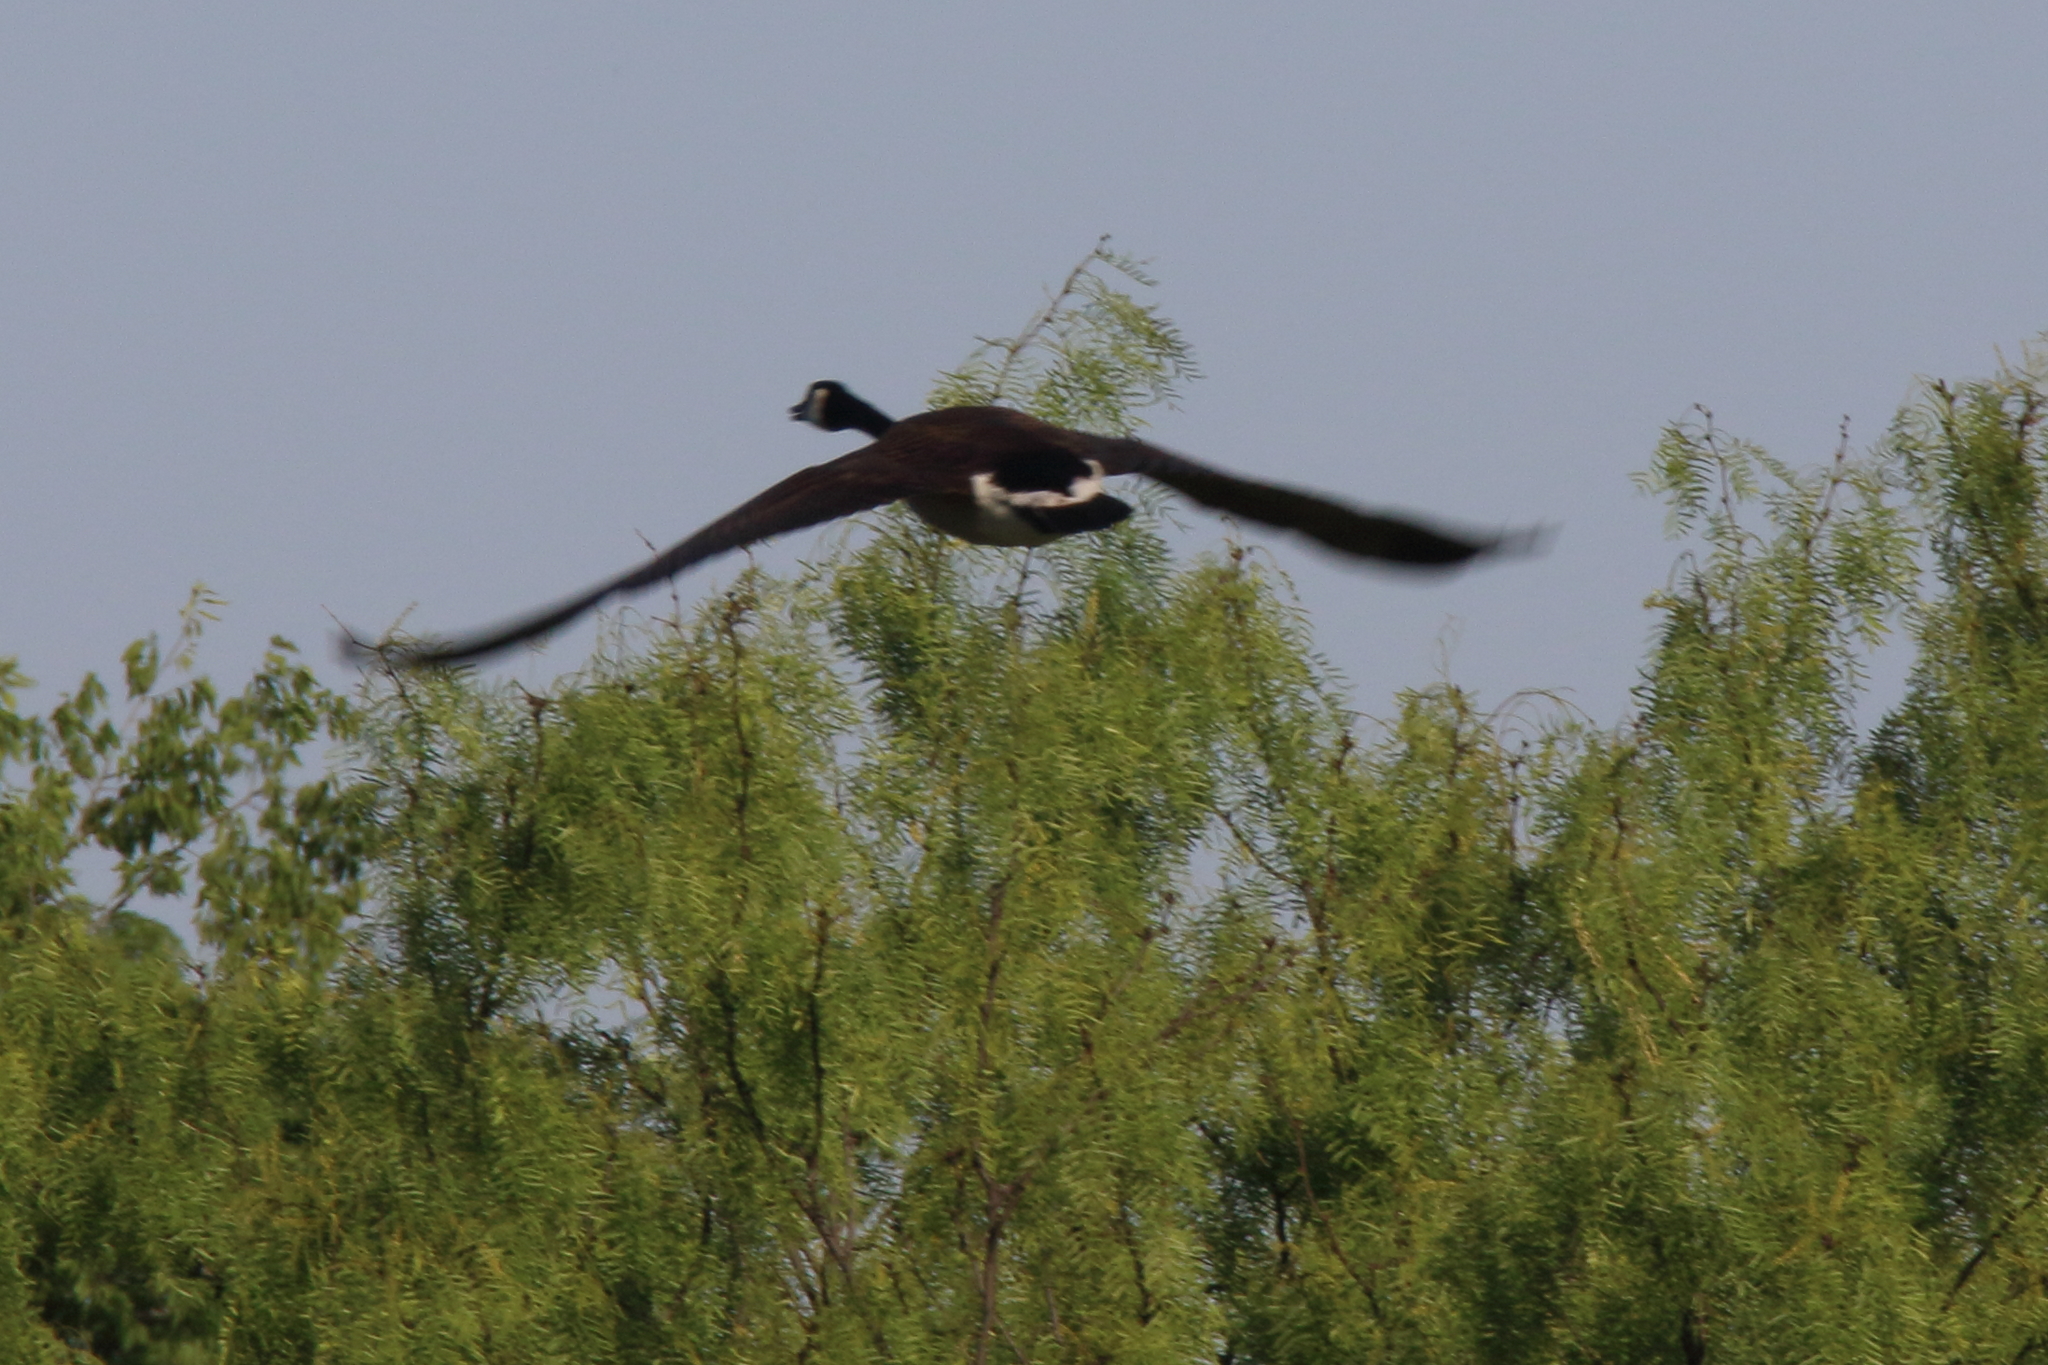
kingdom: Animalia
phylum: Chordata
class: Aves
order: Anseriformes
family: Anatidae
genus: Branta
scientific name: Branta canadensis
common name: Canada goose
